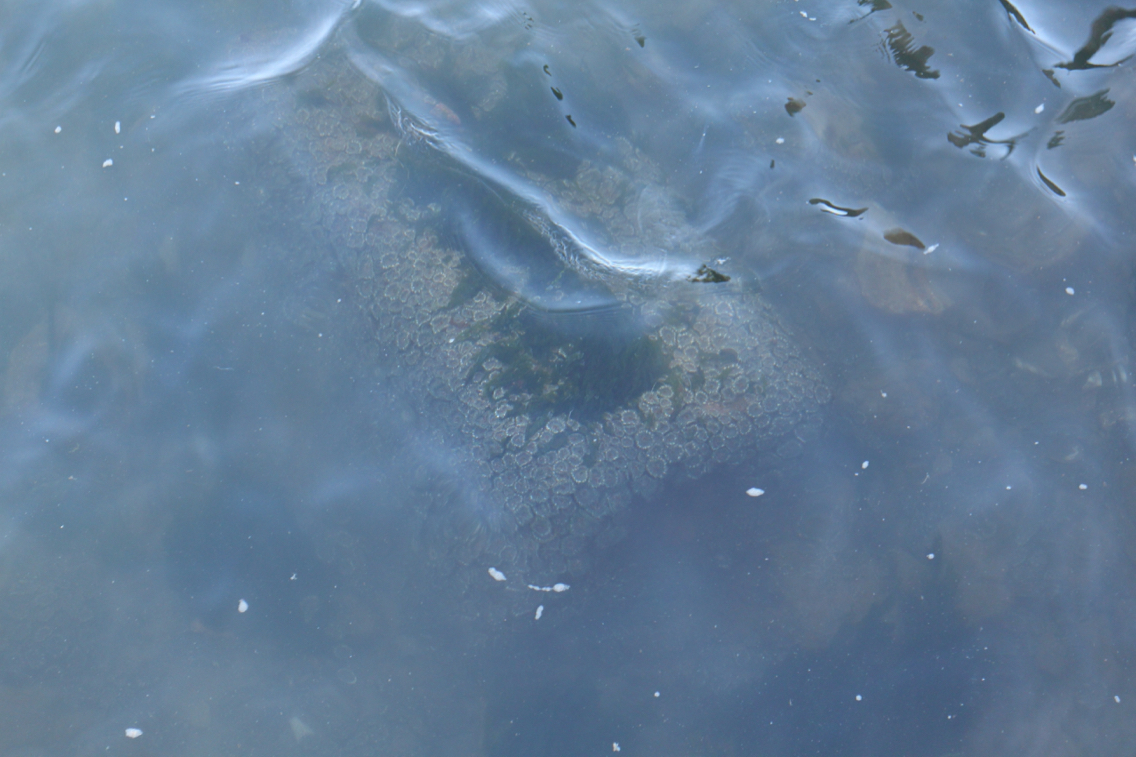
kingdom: Animalia
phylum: Cnidaria
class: Anthozoa
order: Actiniaria
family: Actiniidae
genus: Anthopleura
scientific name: Anthopleura elegantissima
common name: Clonal anemone
